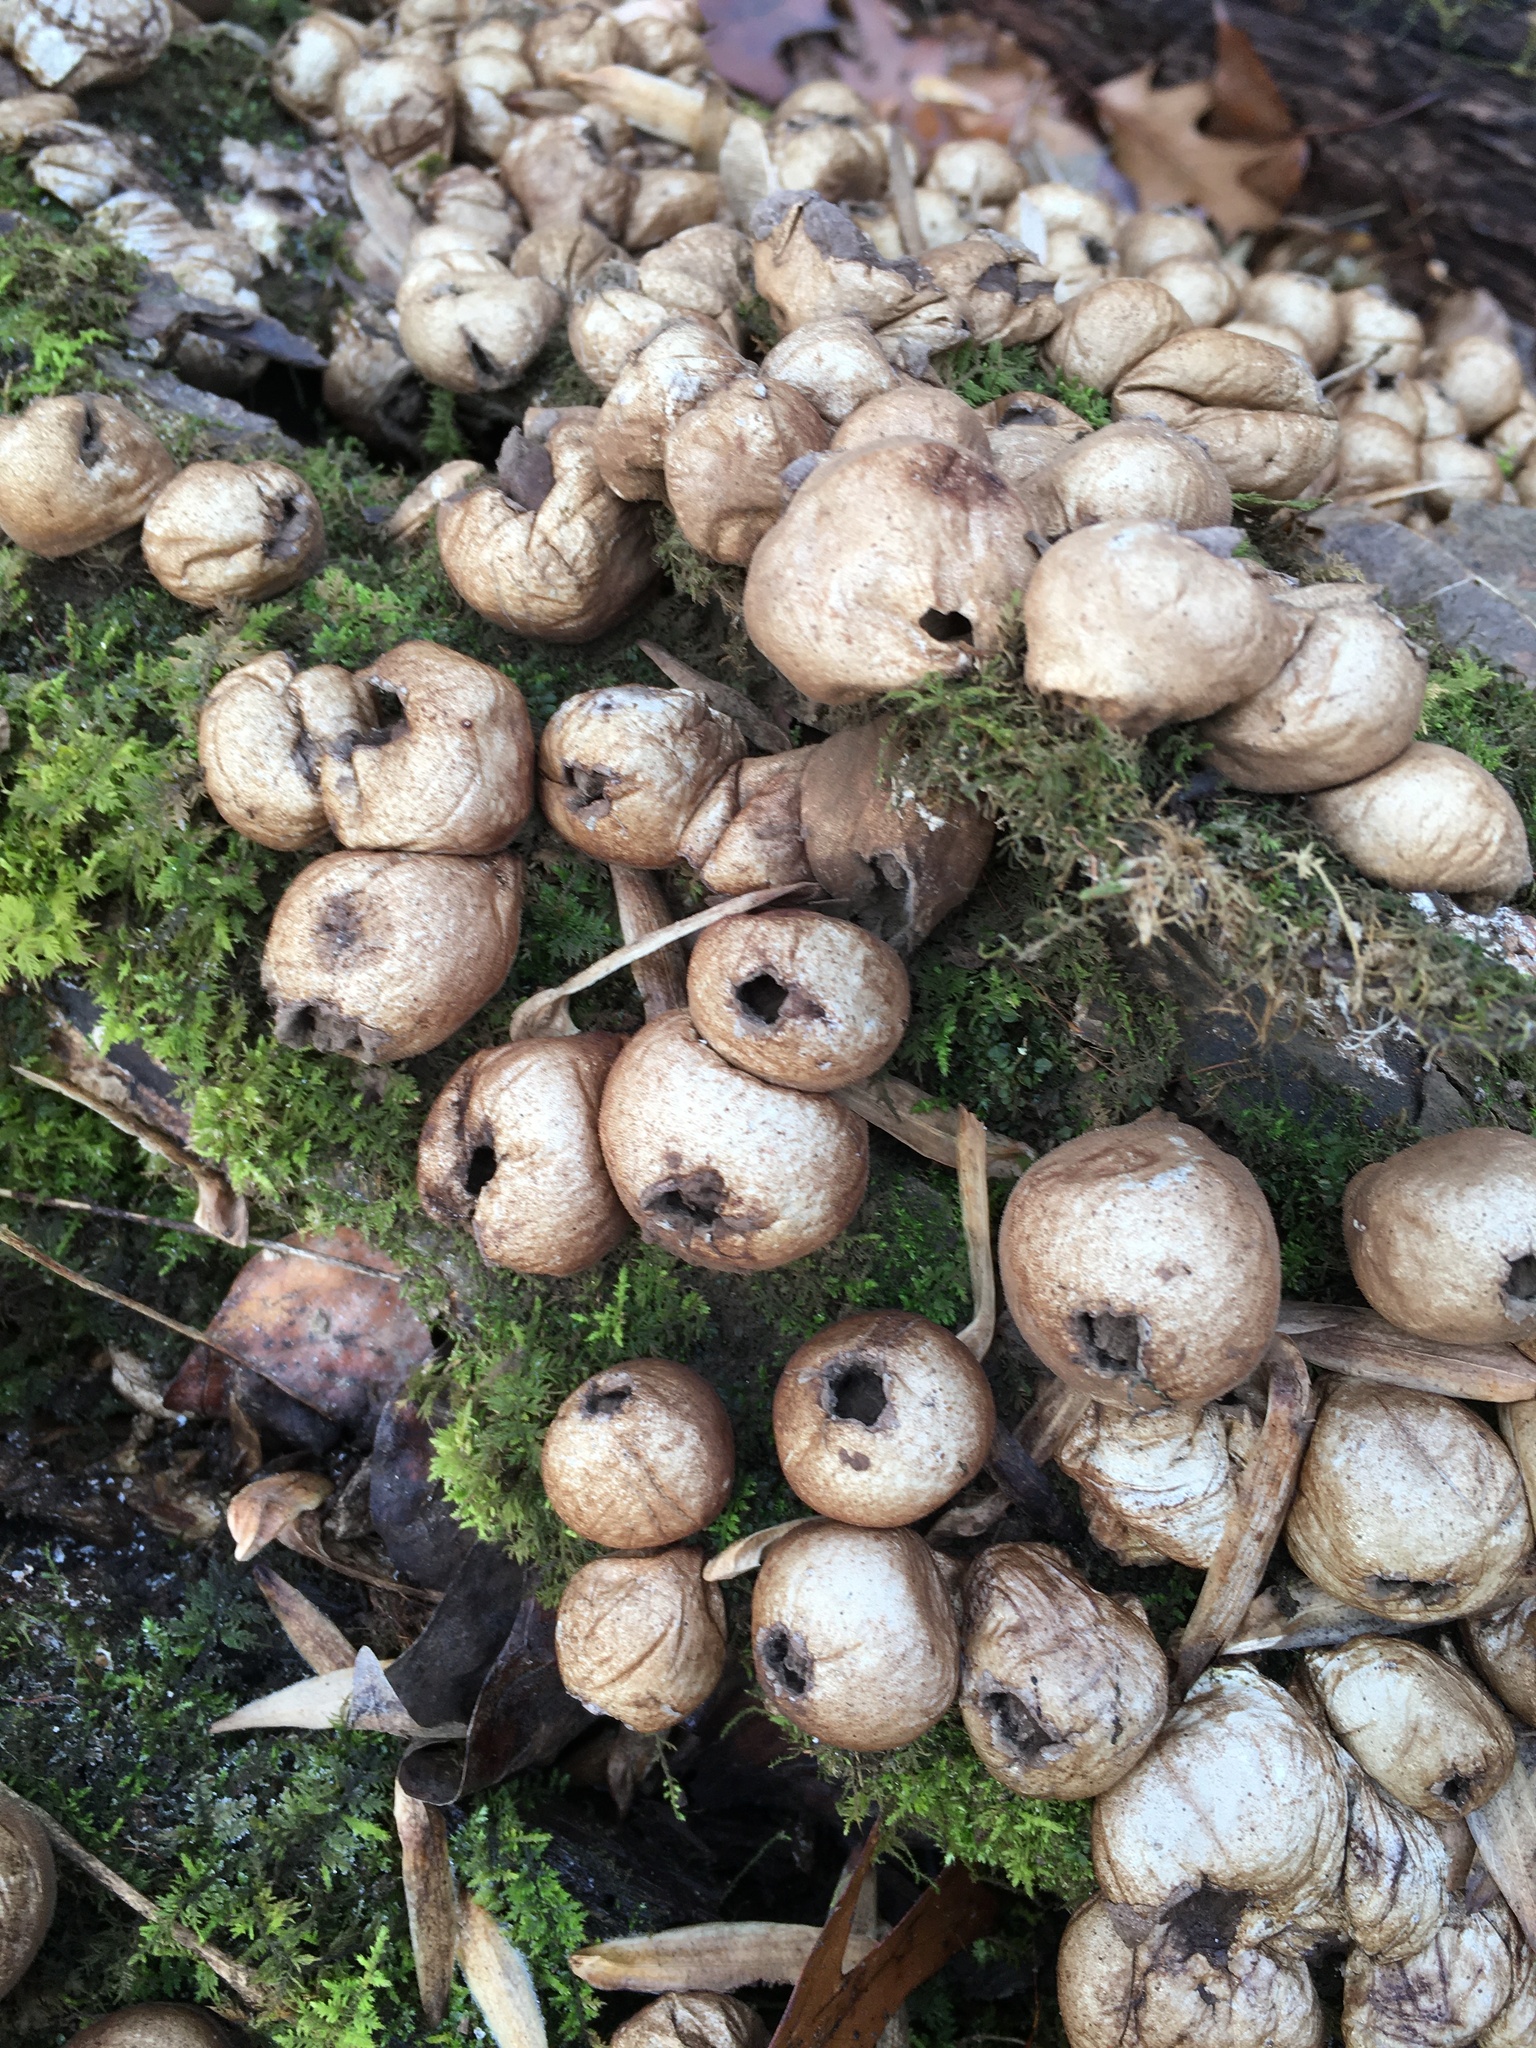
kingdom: Fungi
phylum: Basidiomycota
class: Agaricomycetes
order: Agaricales
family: Lycoperdaceae
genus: Apioperdon
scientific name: Apioperdon pyriforme
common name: Pear-shaped puffball
